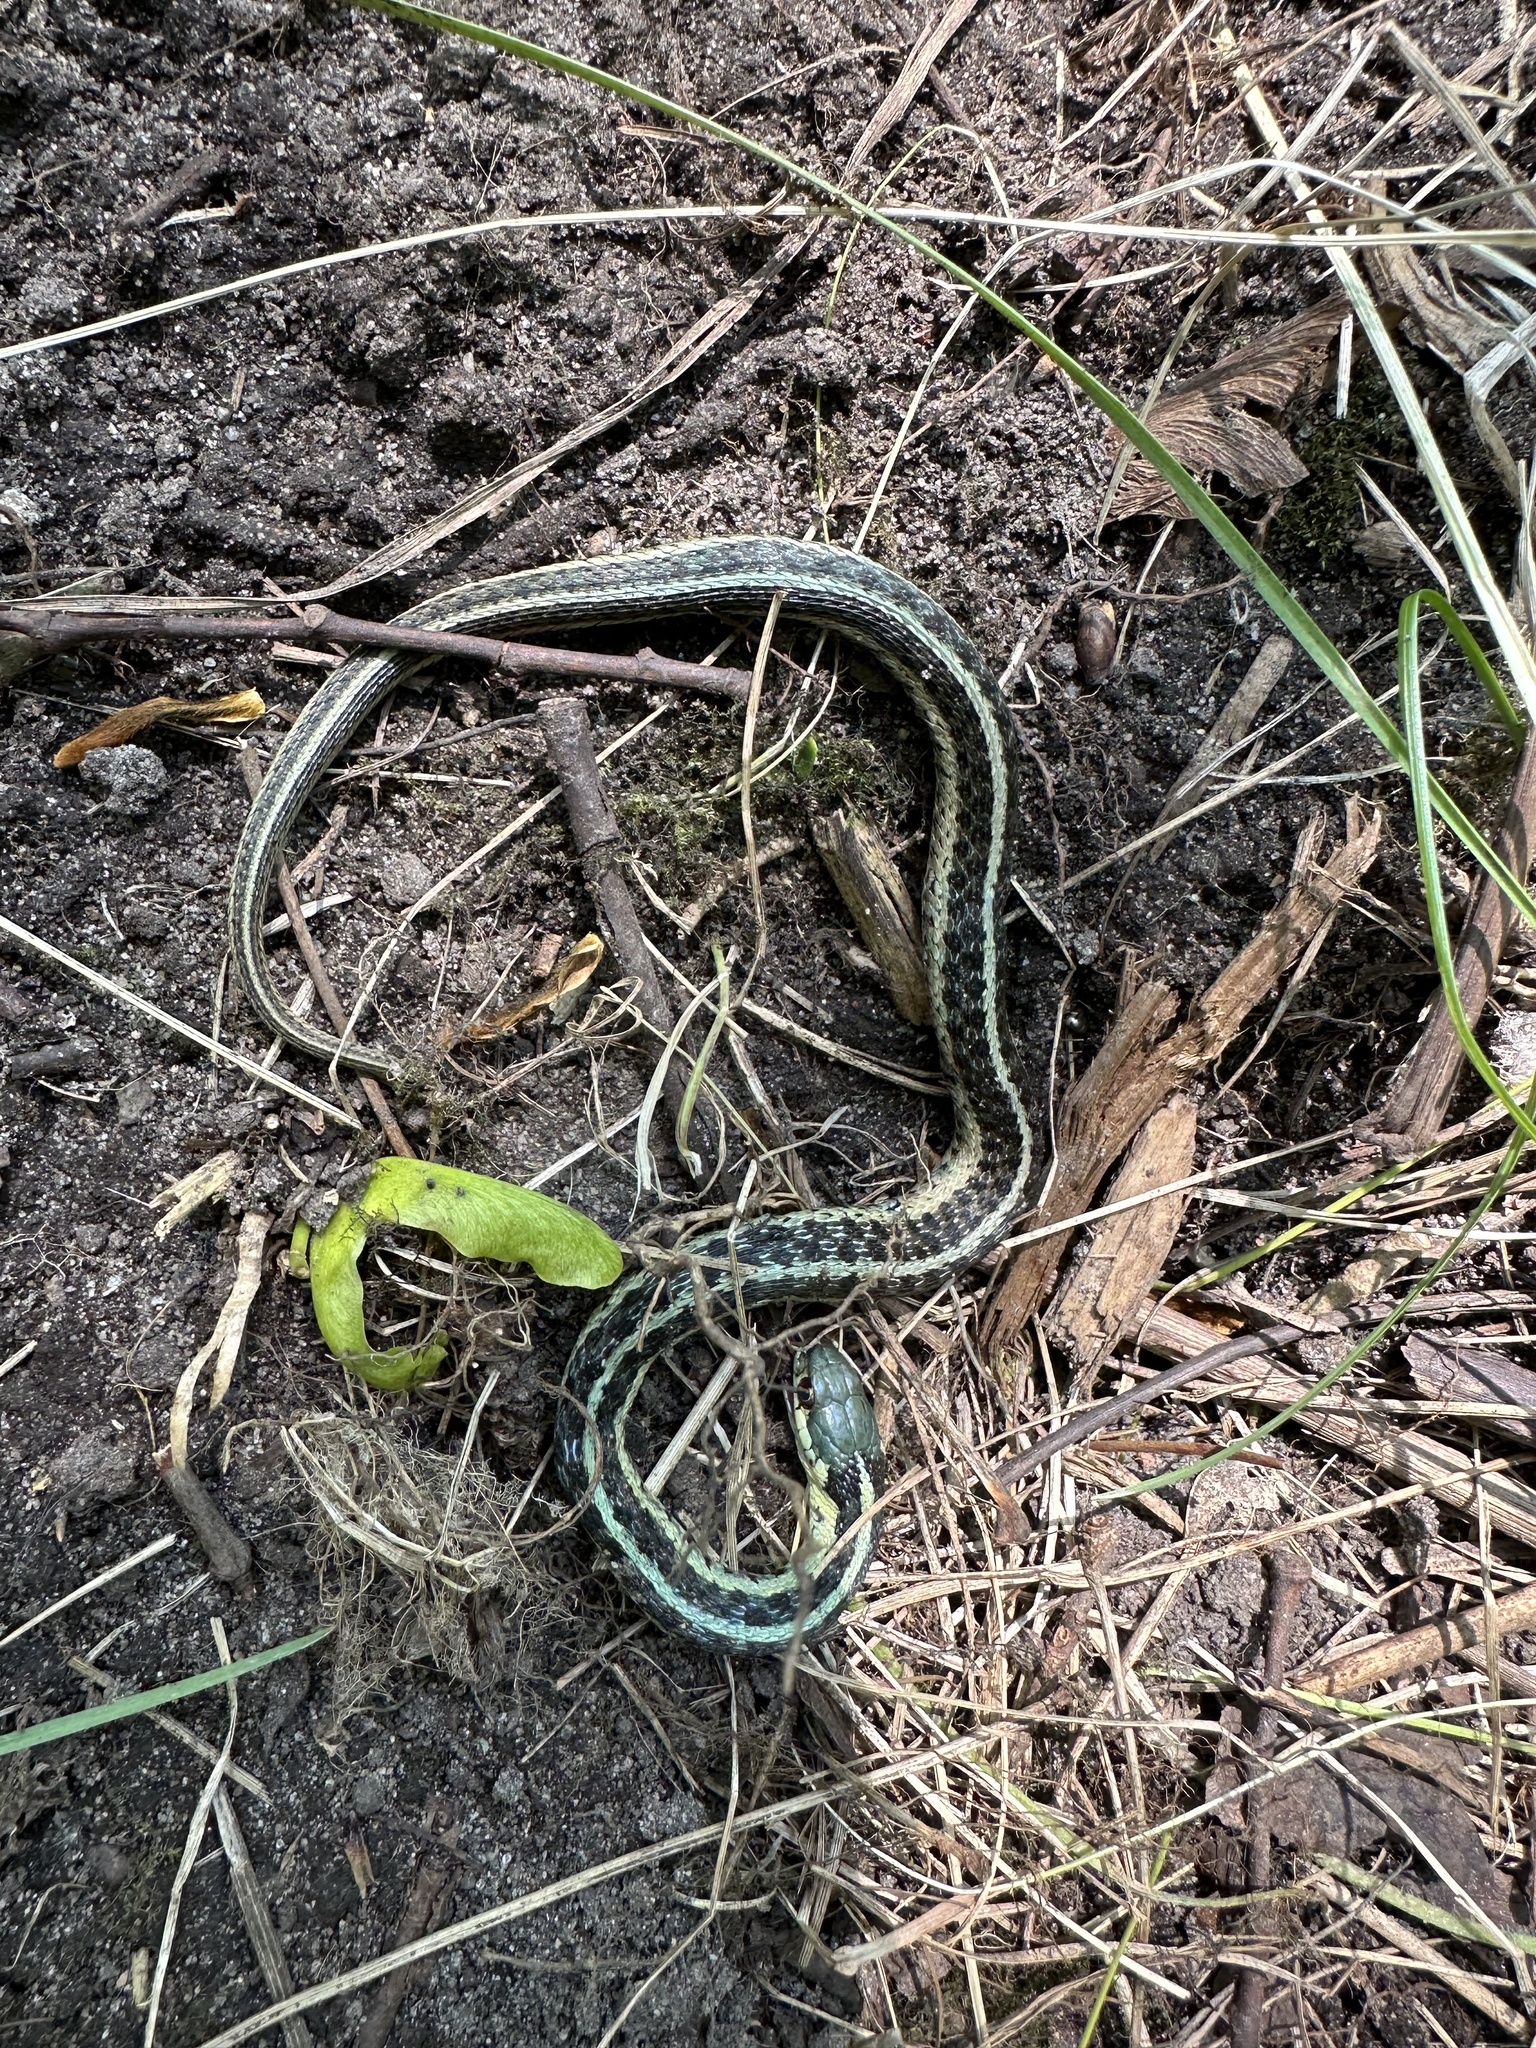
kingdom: Animalia
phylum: Chordata
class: Squamata
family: Colubridae
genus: Thamnophis
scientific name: Thamnophis sirtalis
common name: Common garter snake
